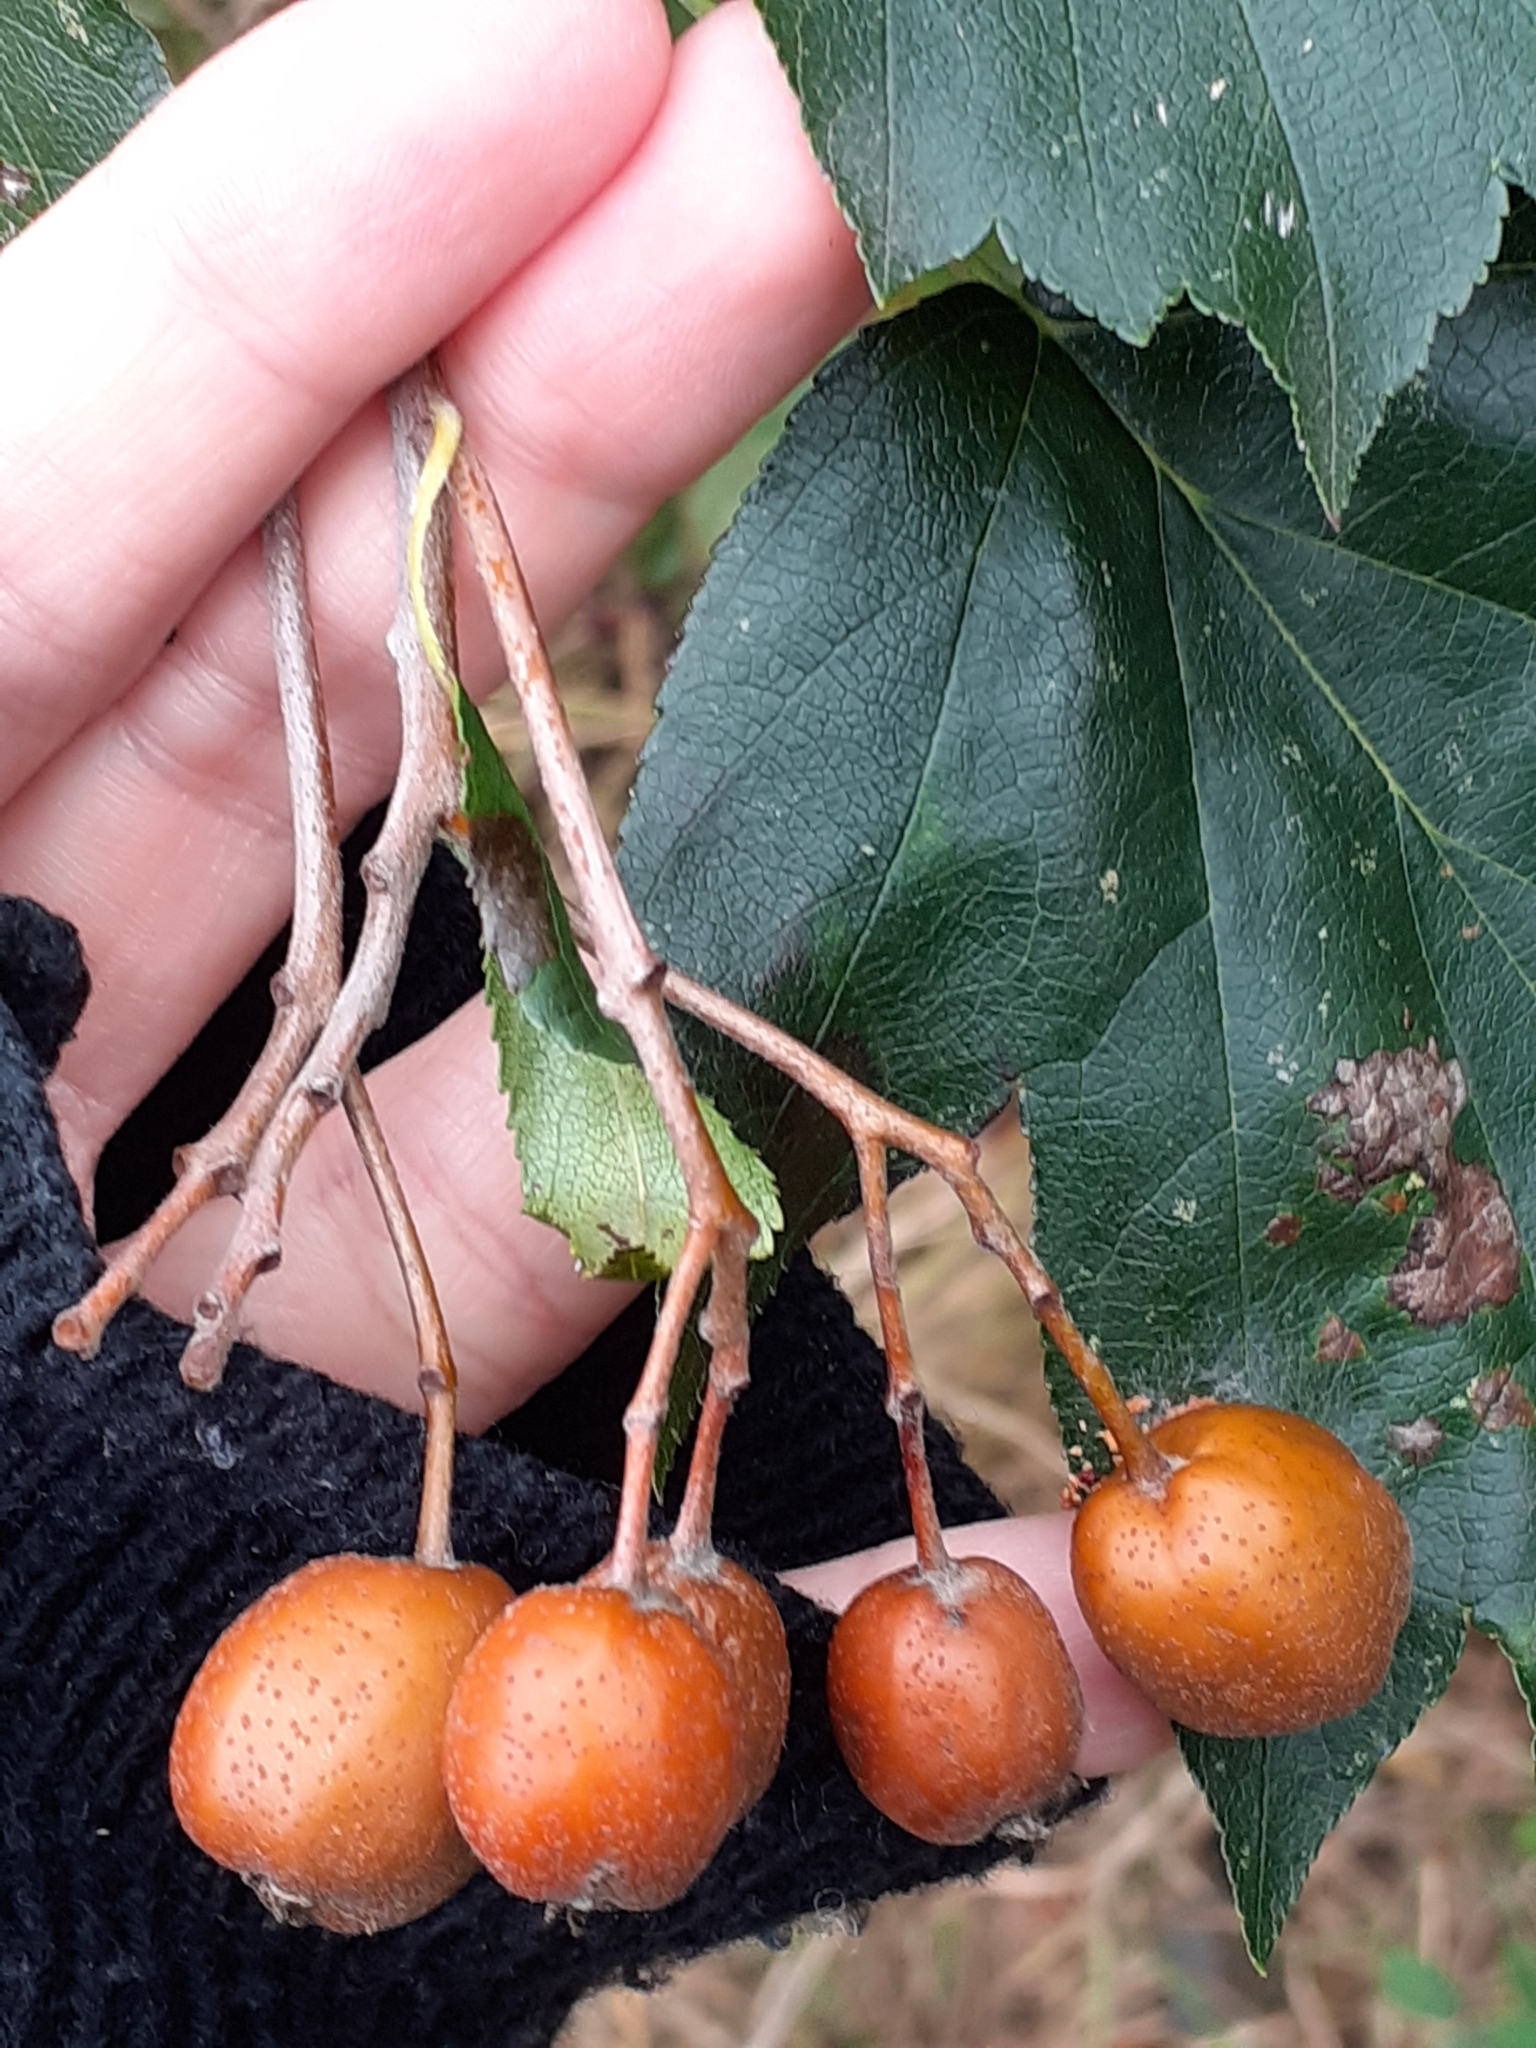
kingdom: Plantae
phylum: Tracheophyta
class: Magnoliopsida
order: Rosales
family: Rosaceae
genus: Torminalis
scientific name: Torminalis glaberrima
